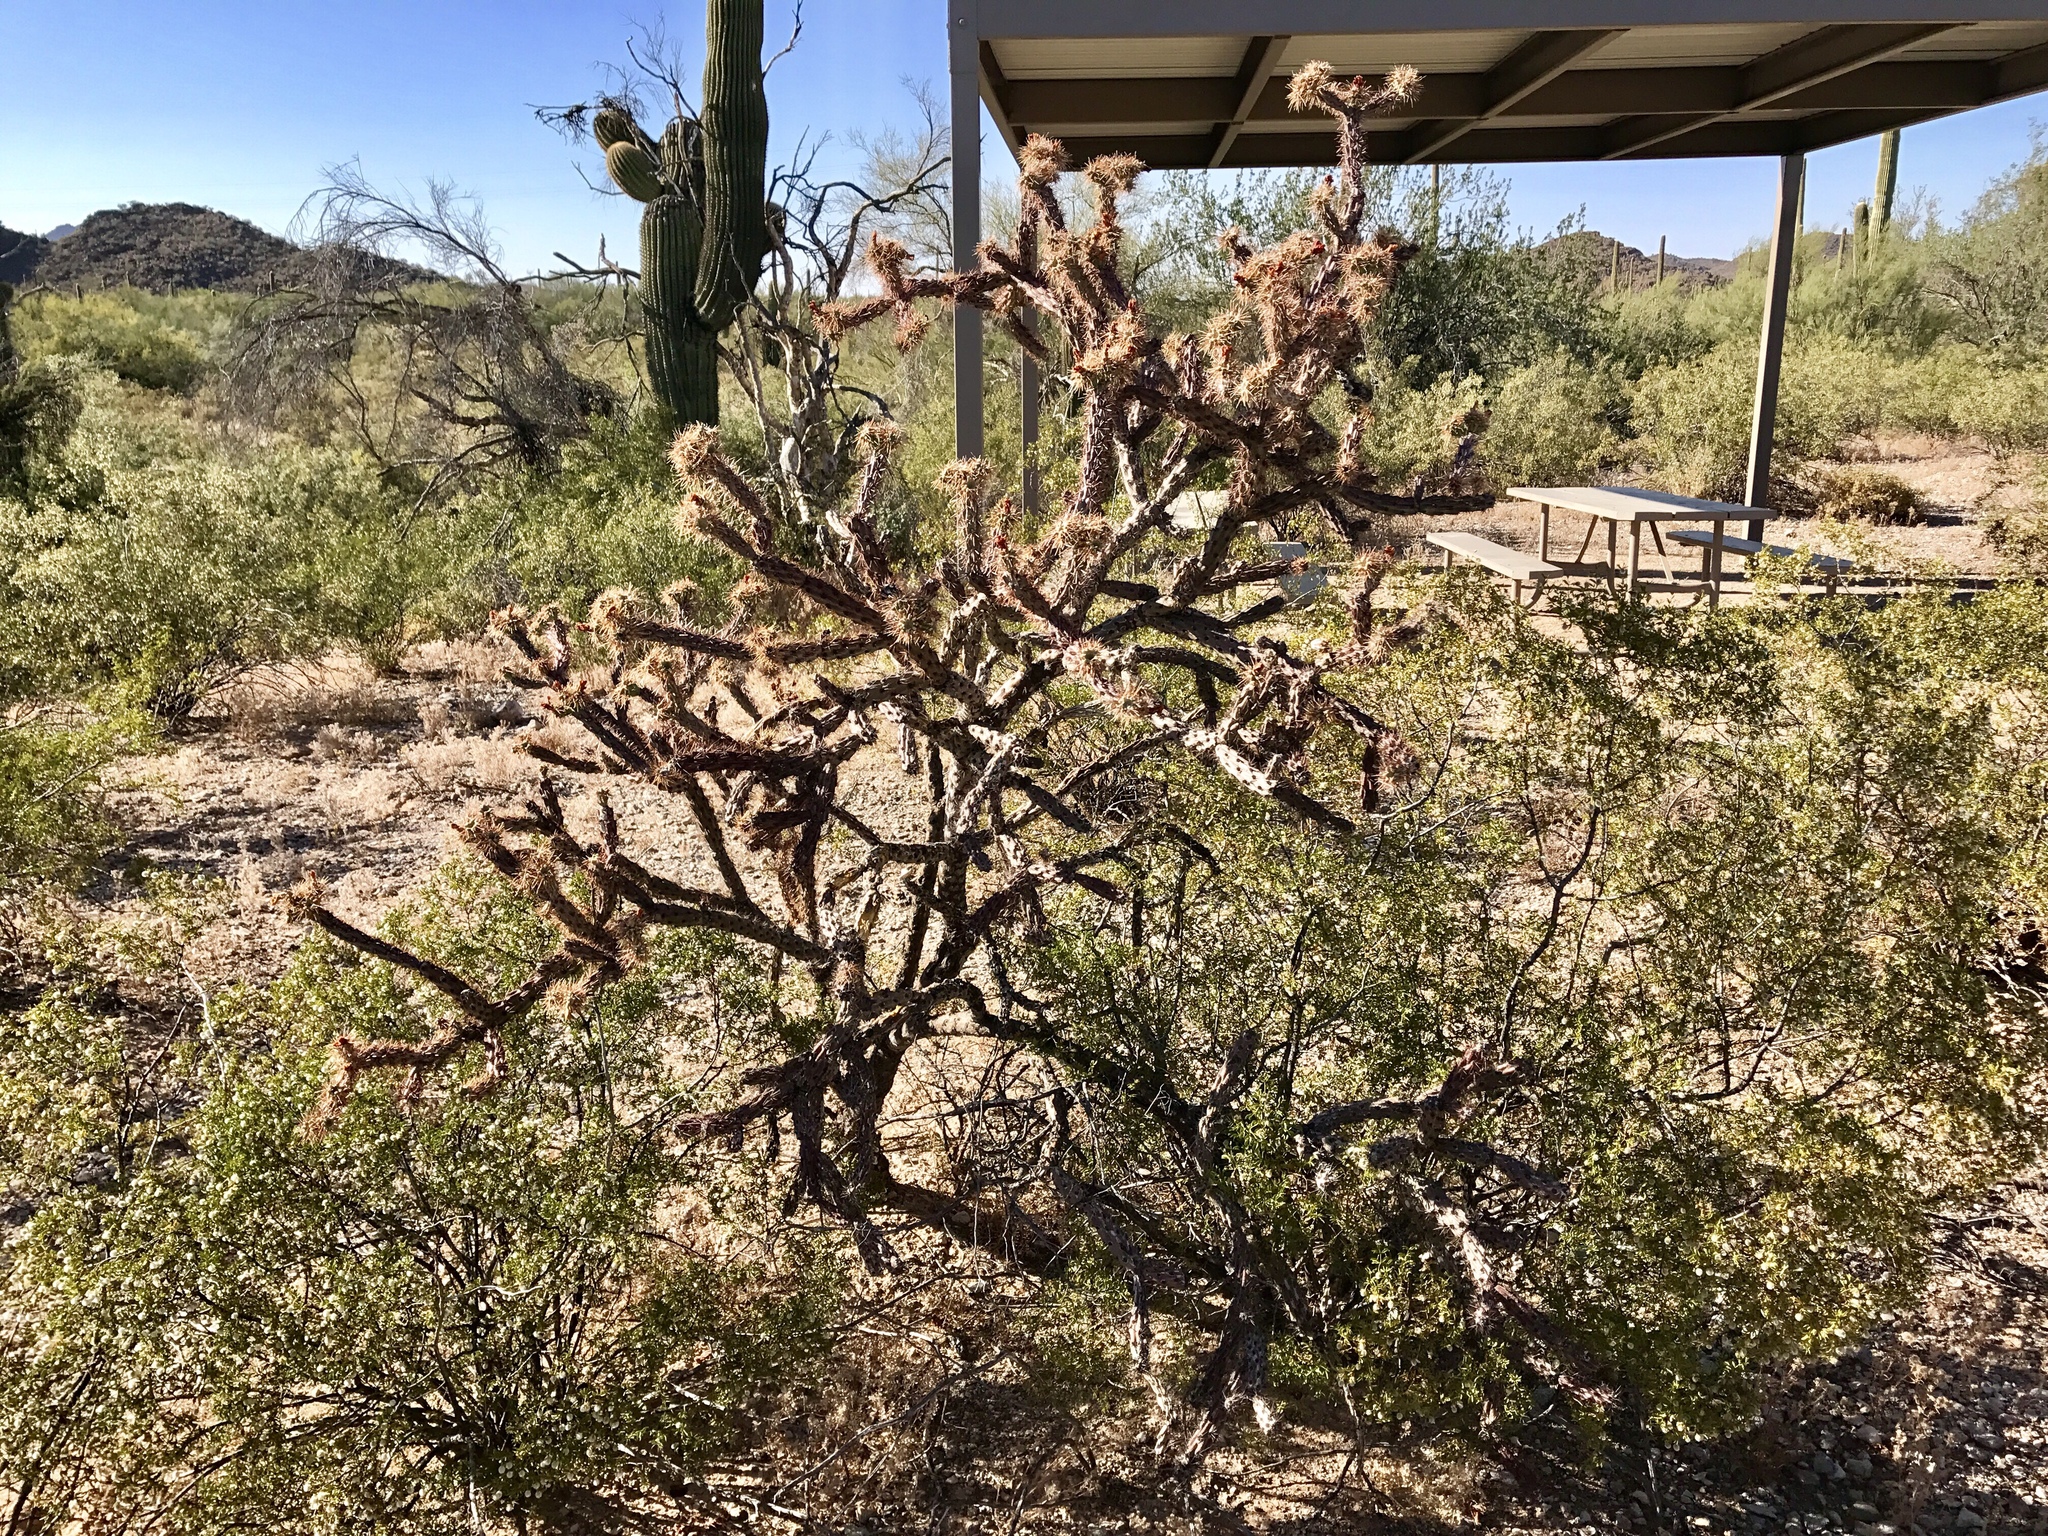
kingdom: Plantae
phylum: Tracheophyta
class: Magnoliopsida
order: Caryophyllales
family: Cactaceae
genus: Cylindropuntia
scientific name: Cylindropuntia acanthocarpa
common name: Buckhorn cholla
